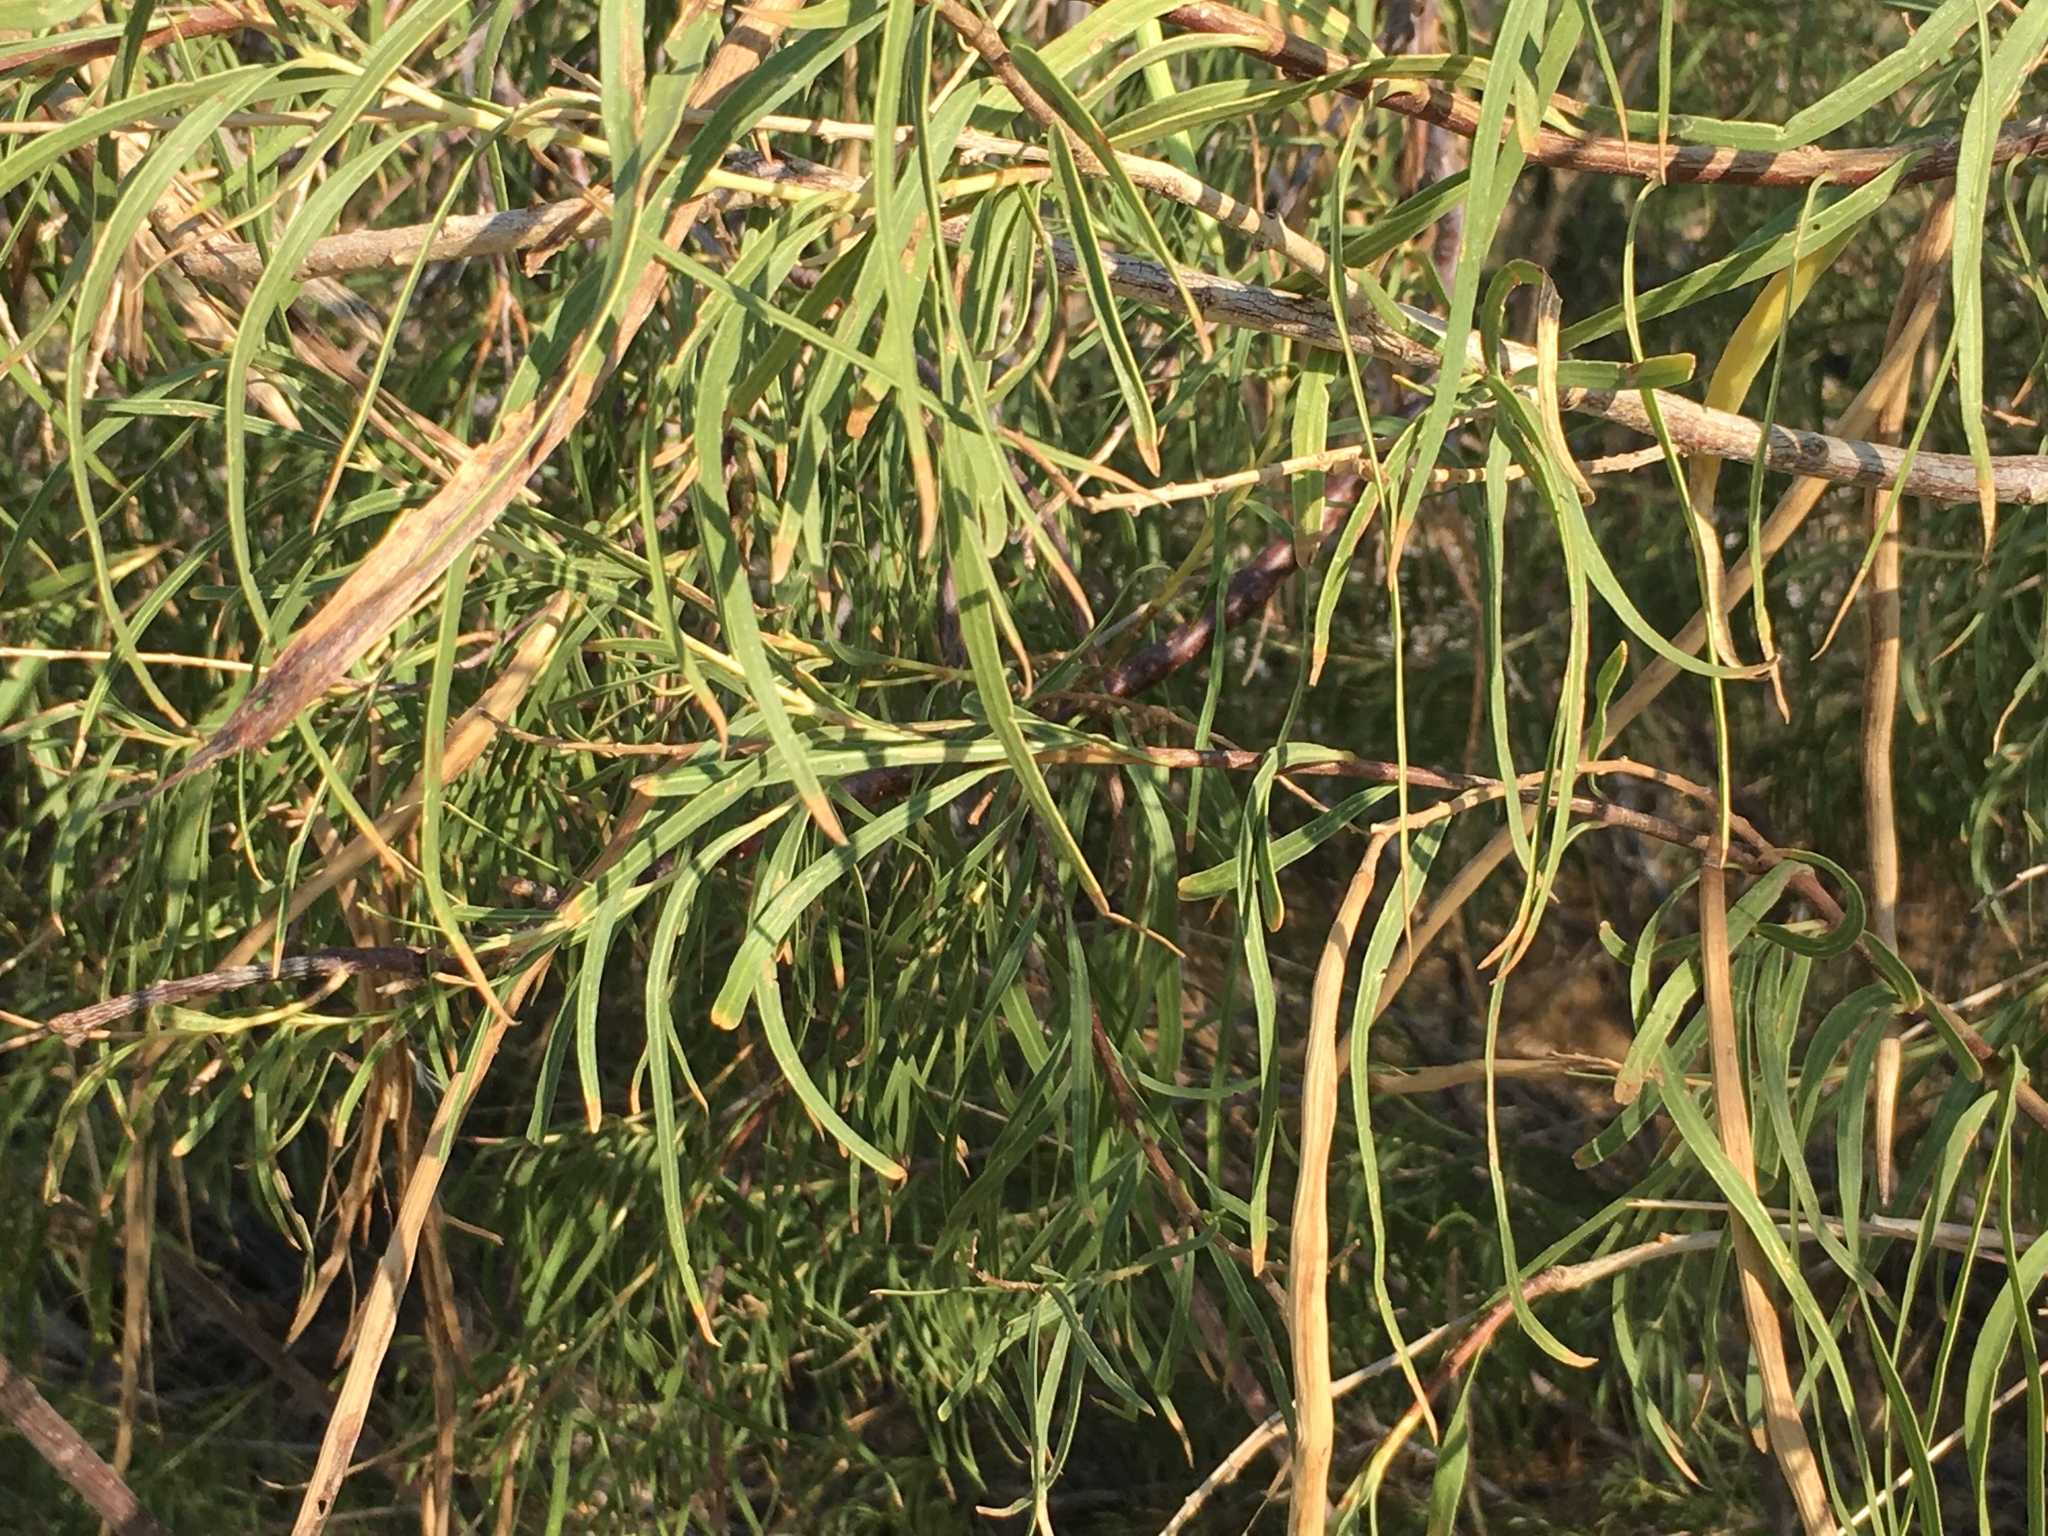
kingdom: Plantae
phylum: Tracheophyta
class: Magnoliopsida
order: Lamiales
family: Bignoniaceae
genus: Chilopsis
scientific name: Chilopsis linearis
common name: Desert-willow
